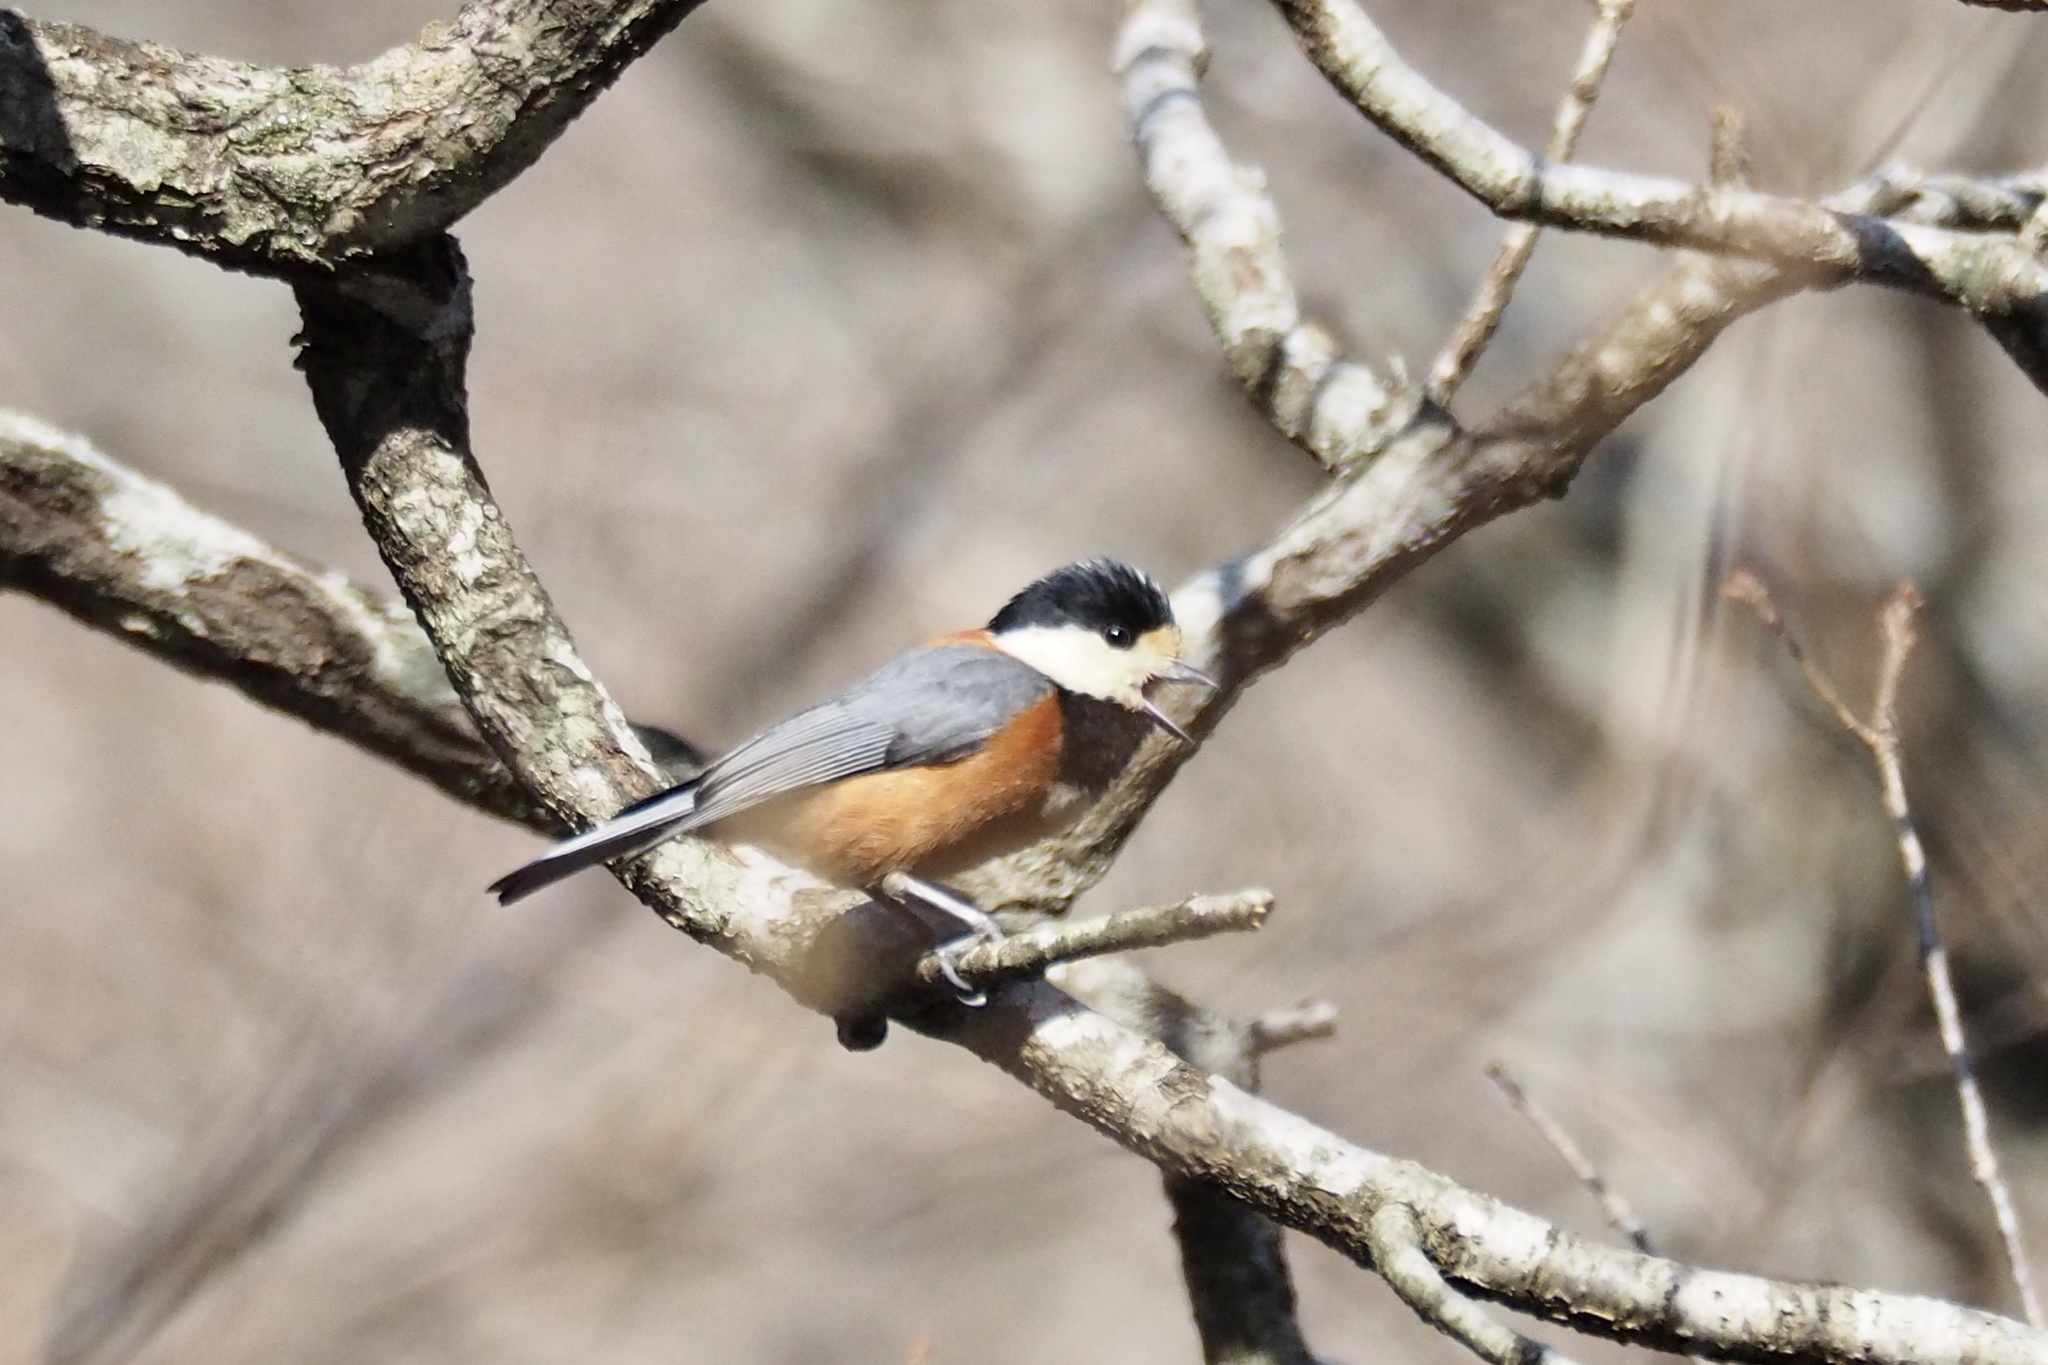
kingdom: Animalia
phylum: Chordata
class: Aves
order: Passeriformes
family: Paridae
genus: Poecile
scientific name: Poecile varius
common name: Varied tit
